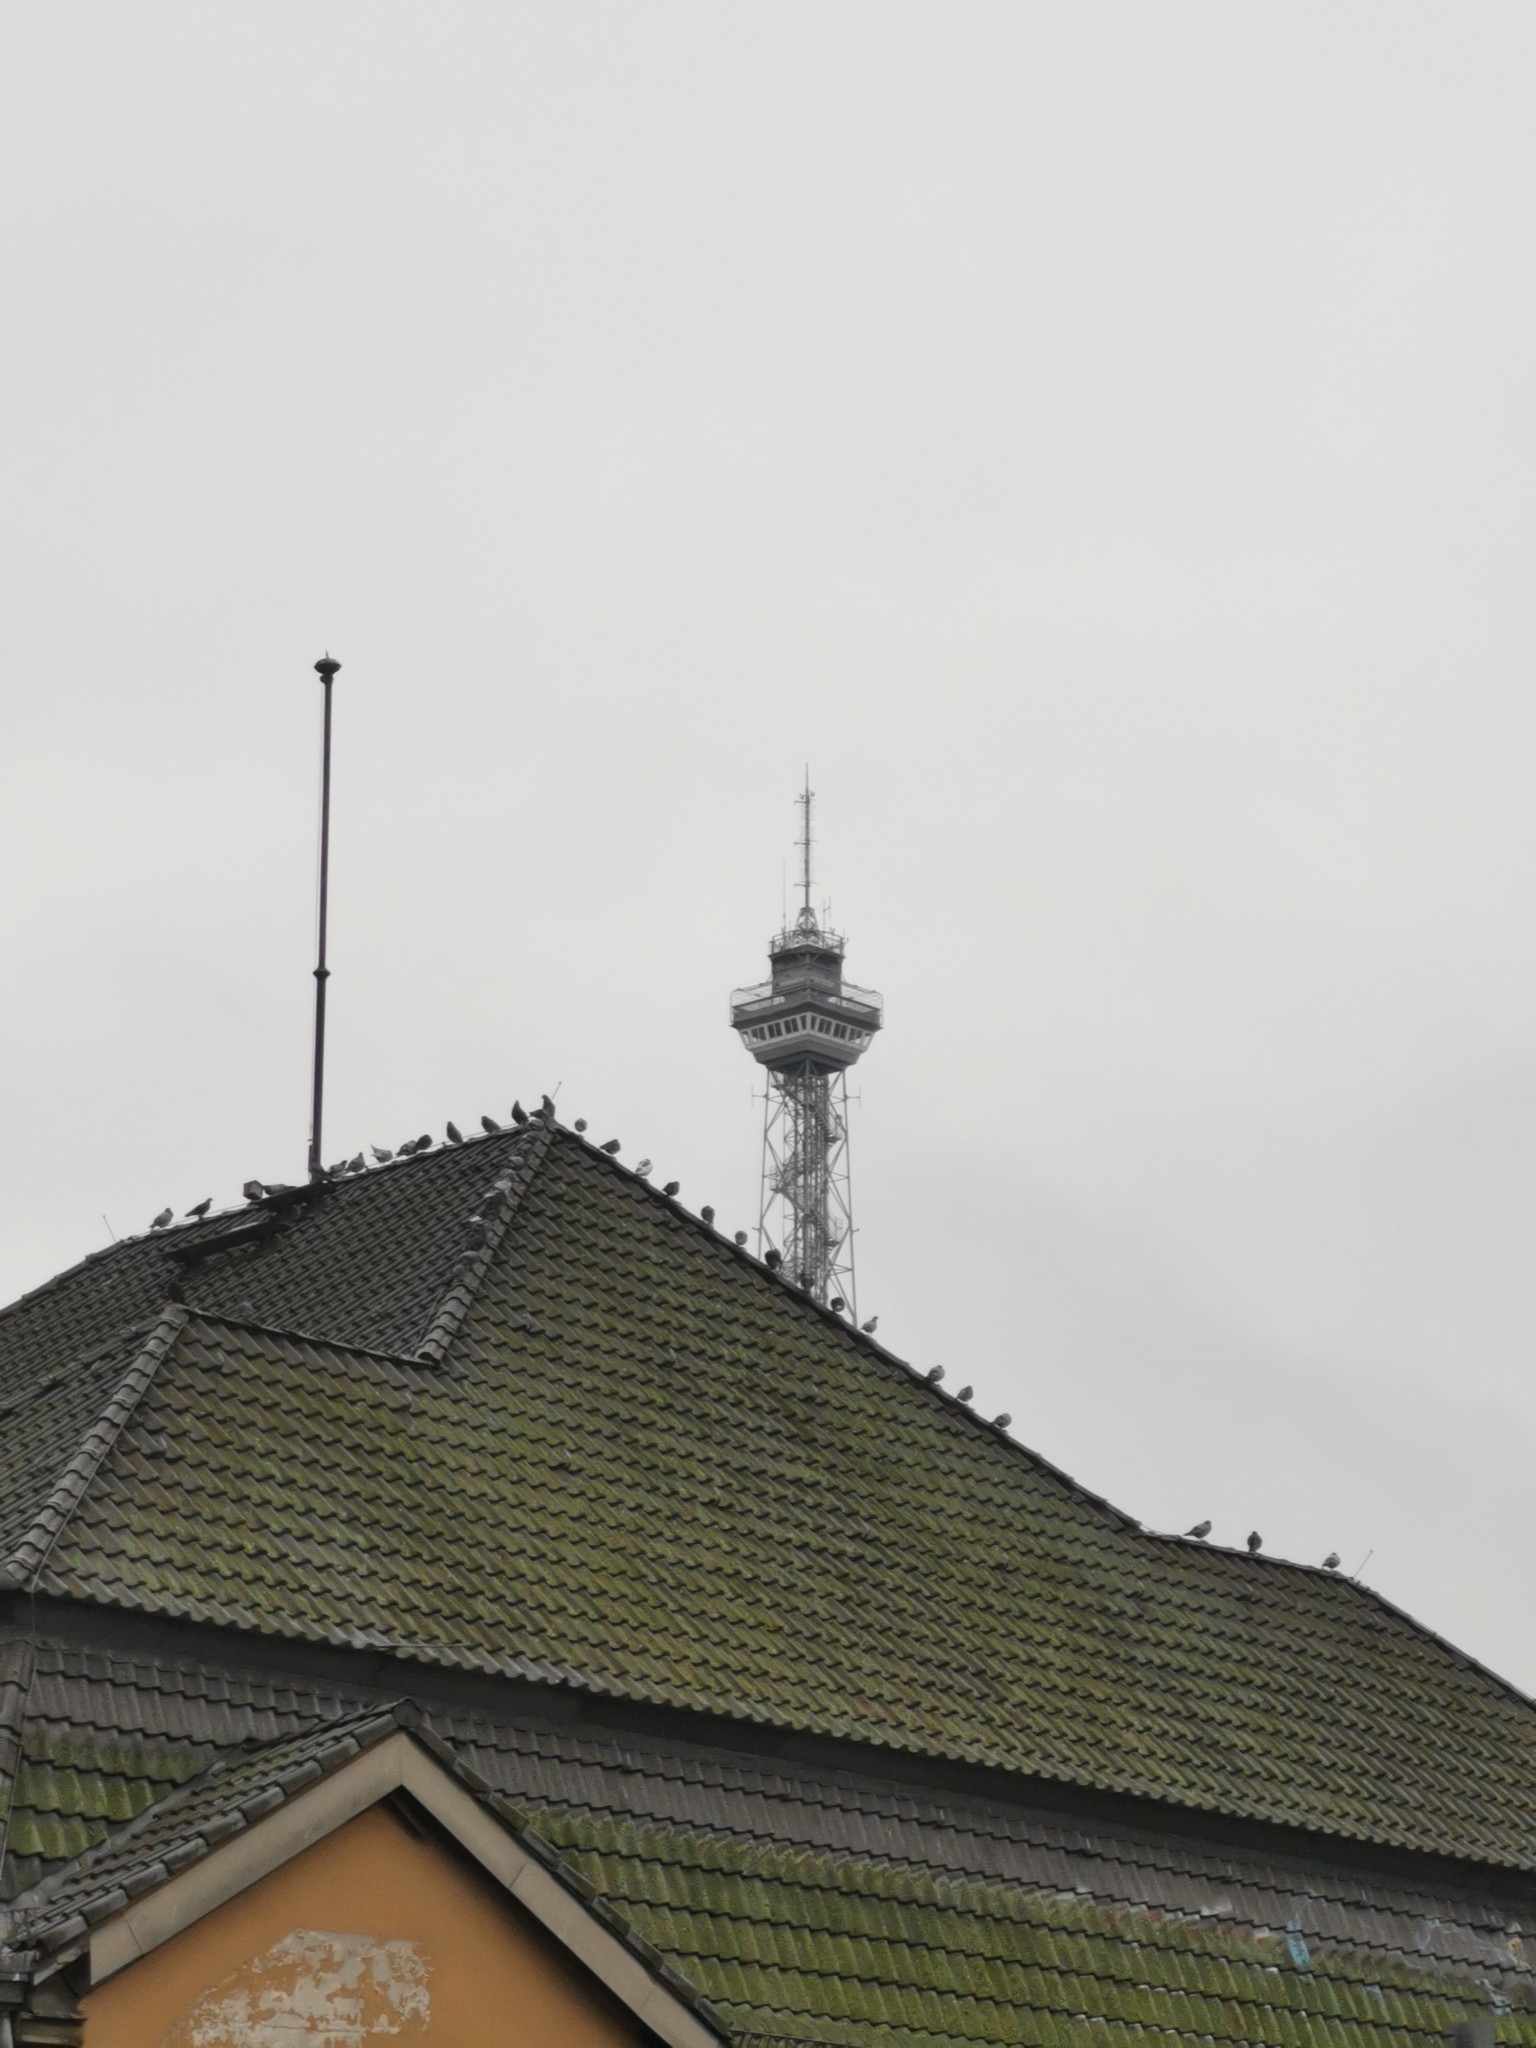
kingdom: Animalia
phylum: Chordata
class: Aves
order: Columbiformes
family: Columbidae
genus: Columba
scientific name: Columba livia
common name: Rock pigeon
